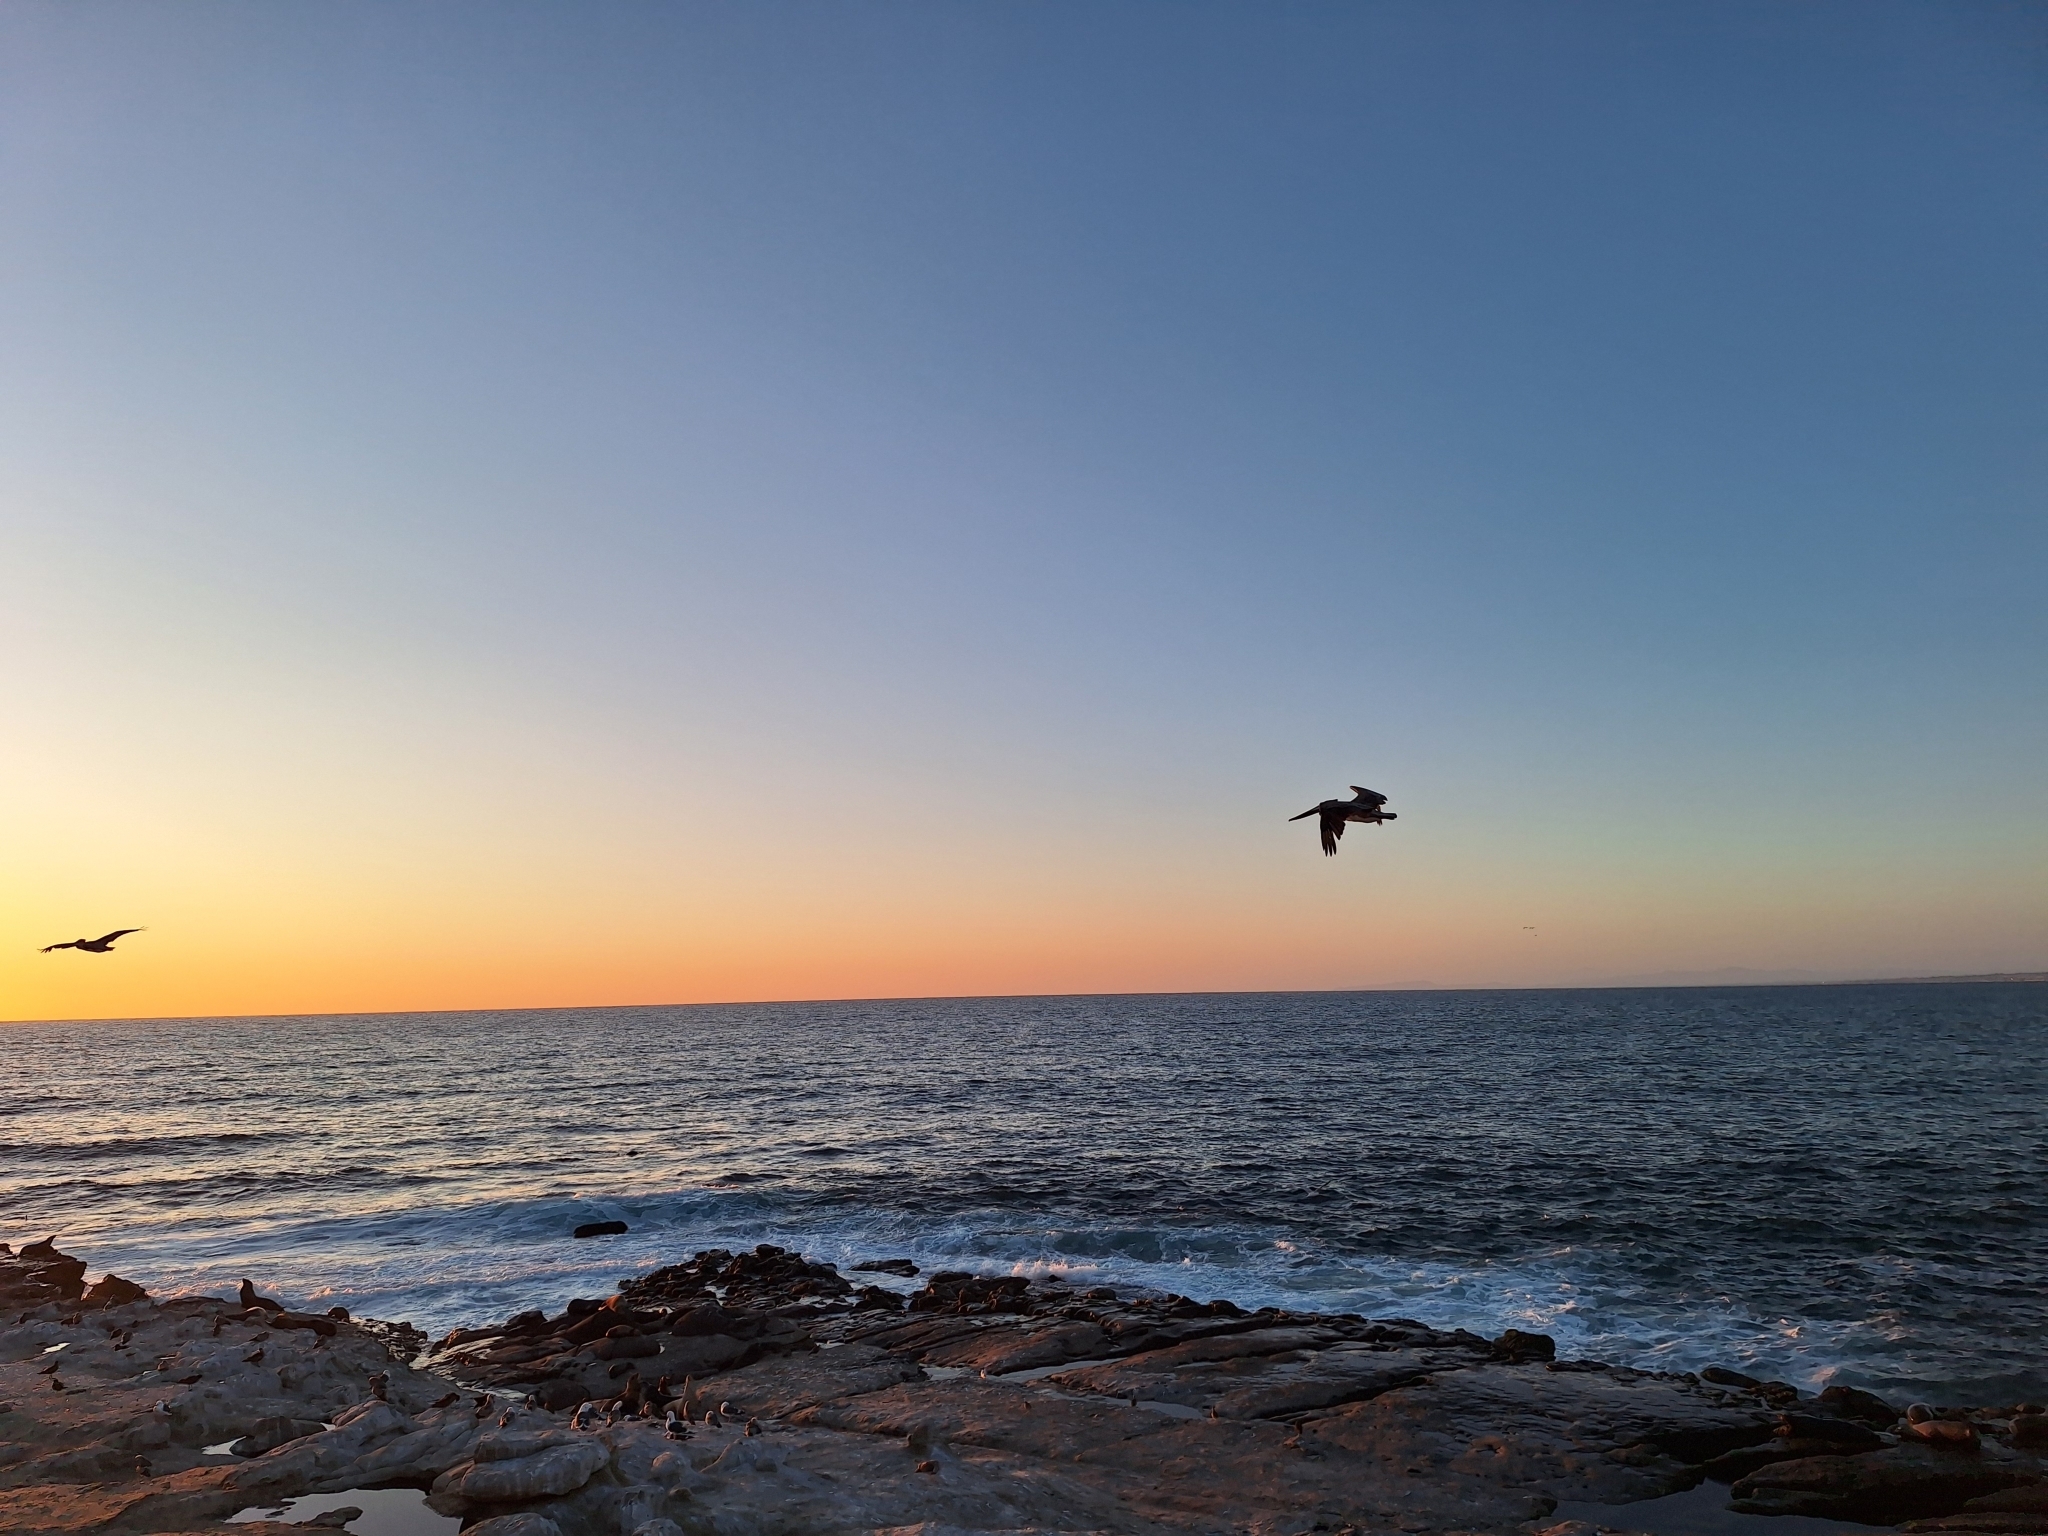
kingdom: Animalia
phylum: Chordata
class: Aves
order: Pelecaniformes
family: Pelecanidae
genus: Pelecanus
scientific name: Pelecanus occidentalis
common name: Brown pelican
